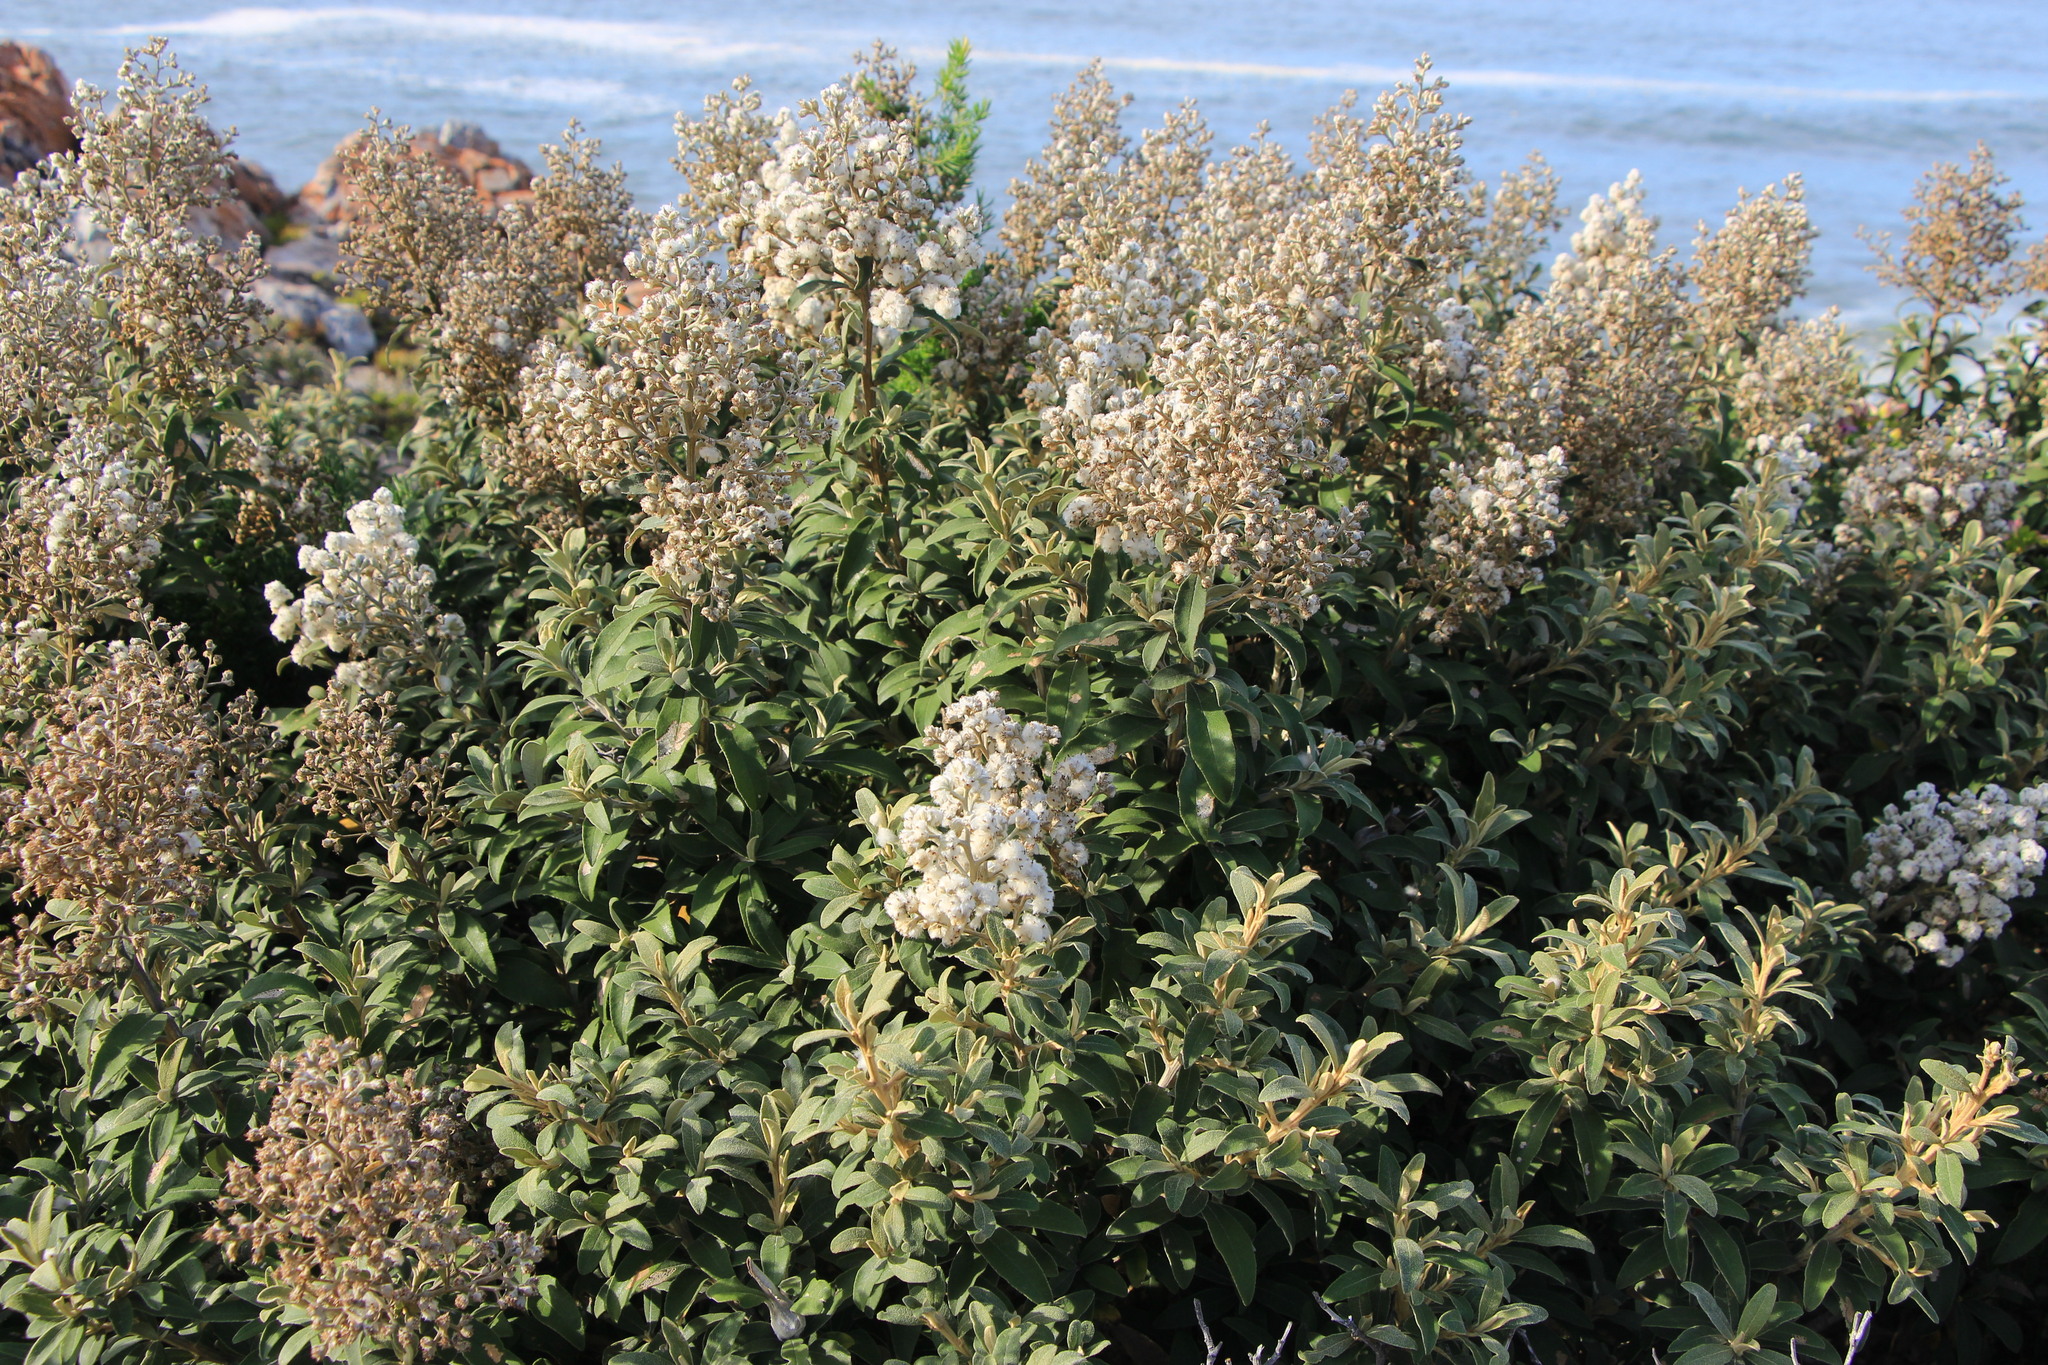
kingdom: Plantae
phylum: Tracheophyta
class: Magnoliopsida
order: Asterales
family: Asteraceae
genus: Tarchonanthus
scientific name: Tarchonanthus littoralis
